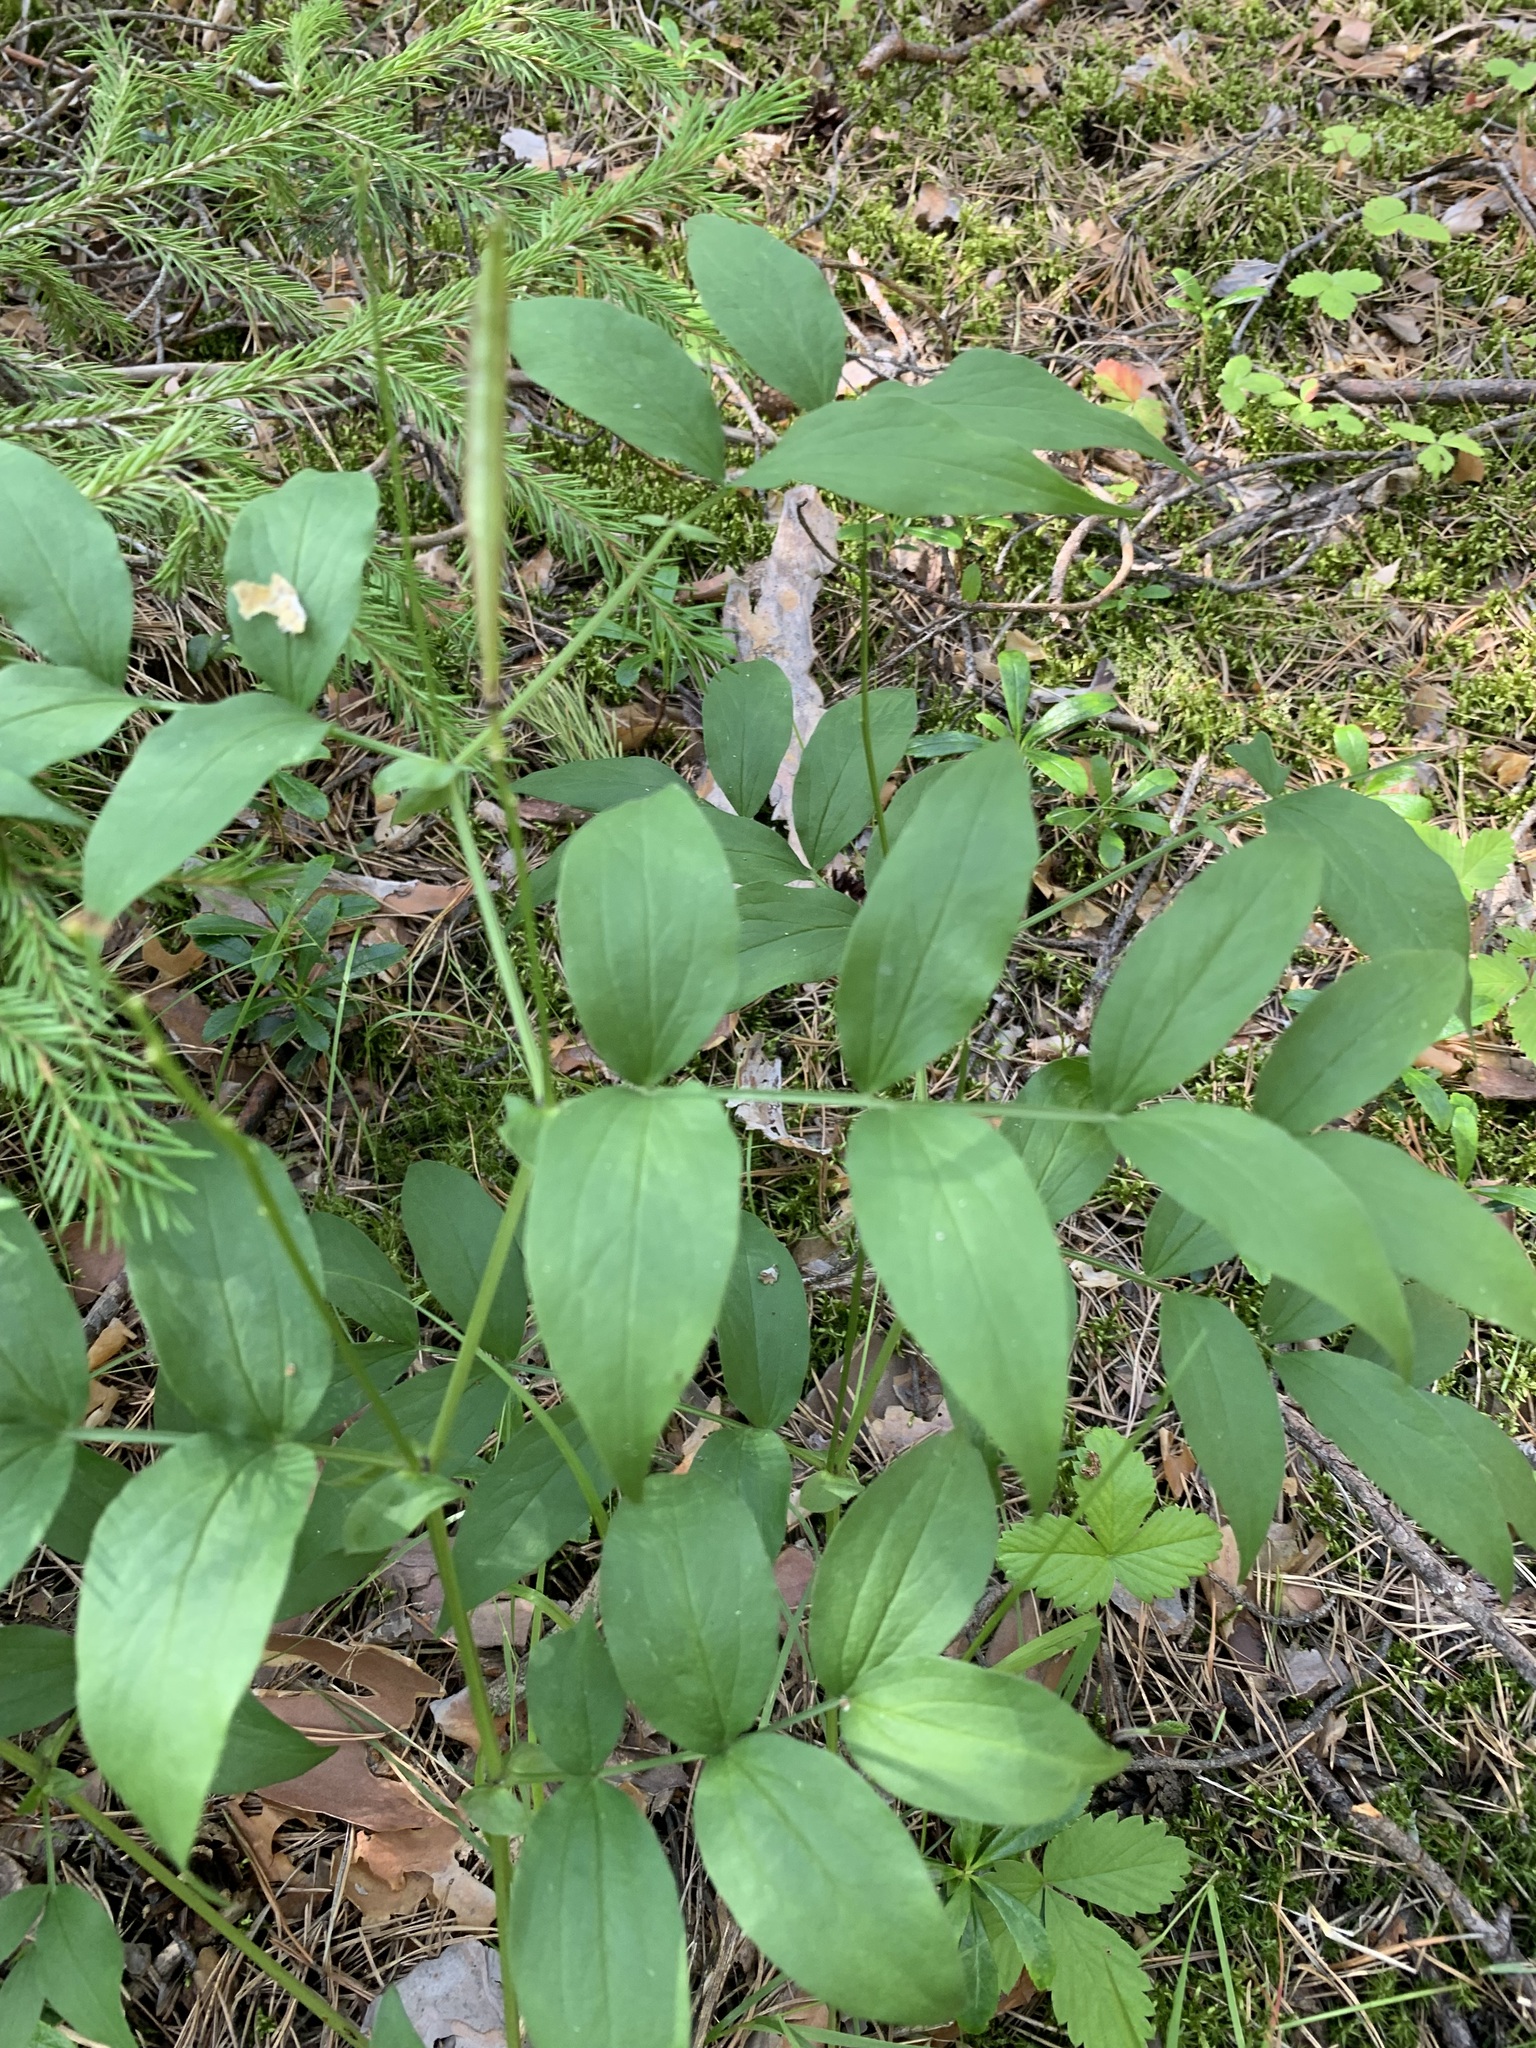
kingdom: Plantae
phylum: Tracheophyta
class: Magnoliopsida
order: Fabales
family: Fabaceae
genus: Lathyrus
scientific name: Lathyrus vernus
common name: Spring pea
